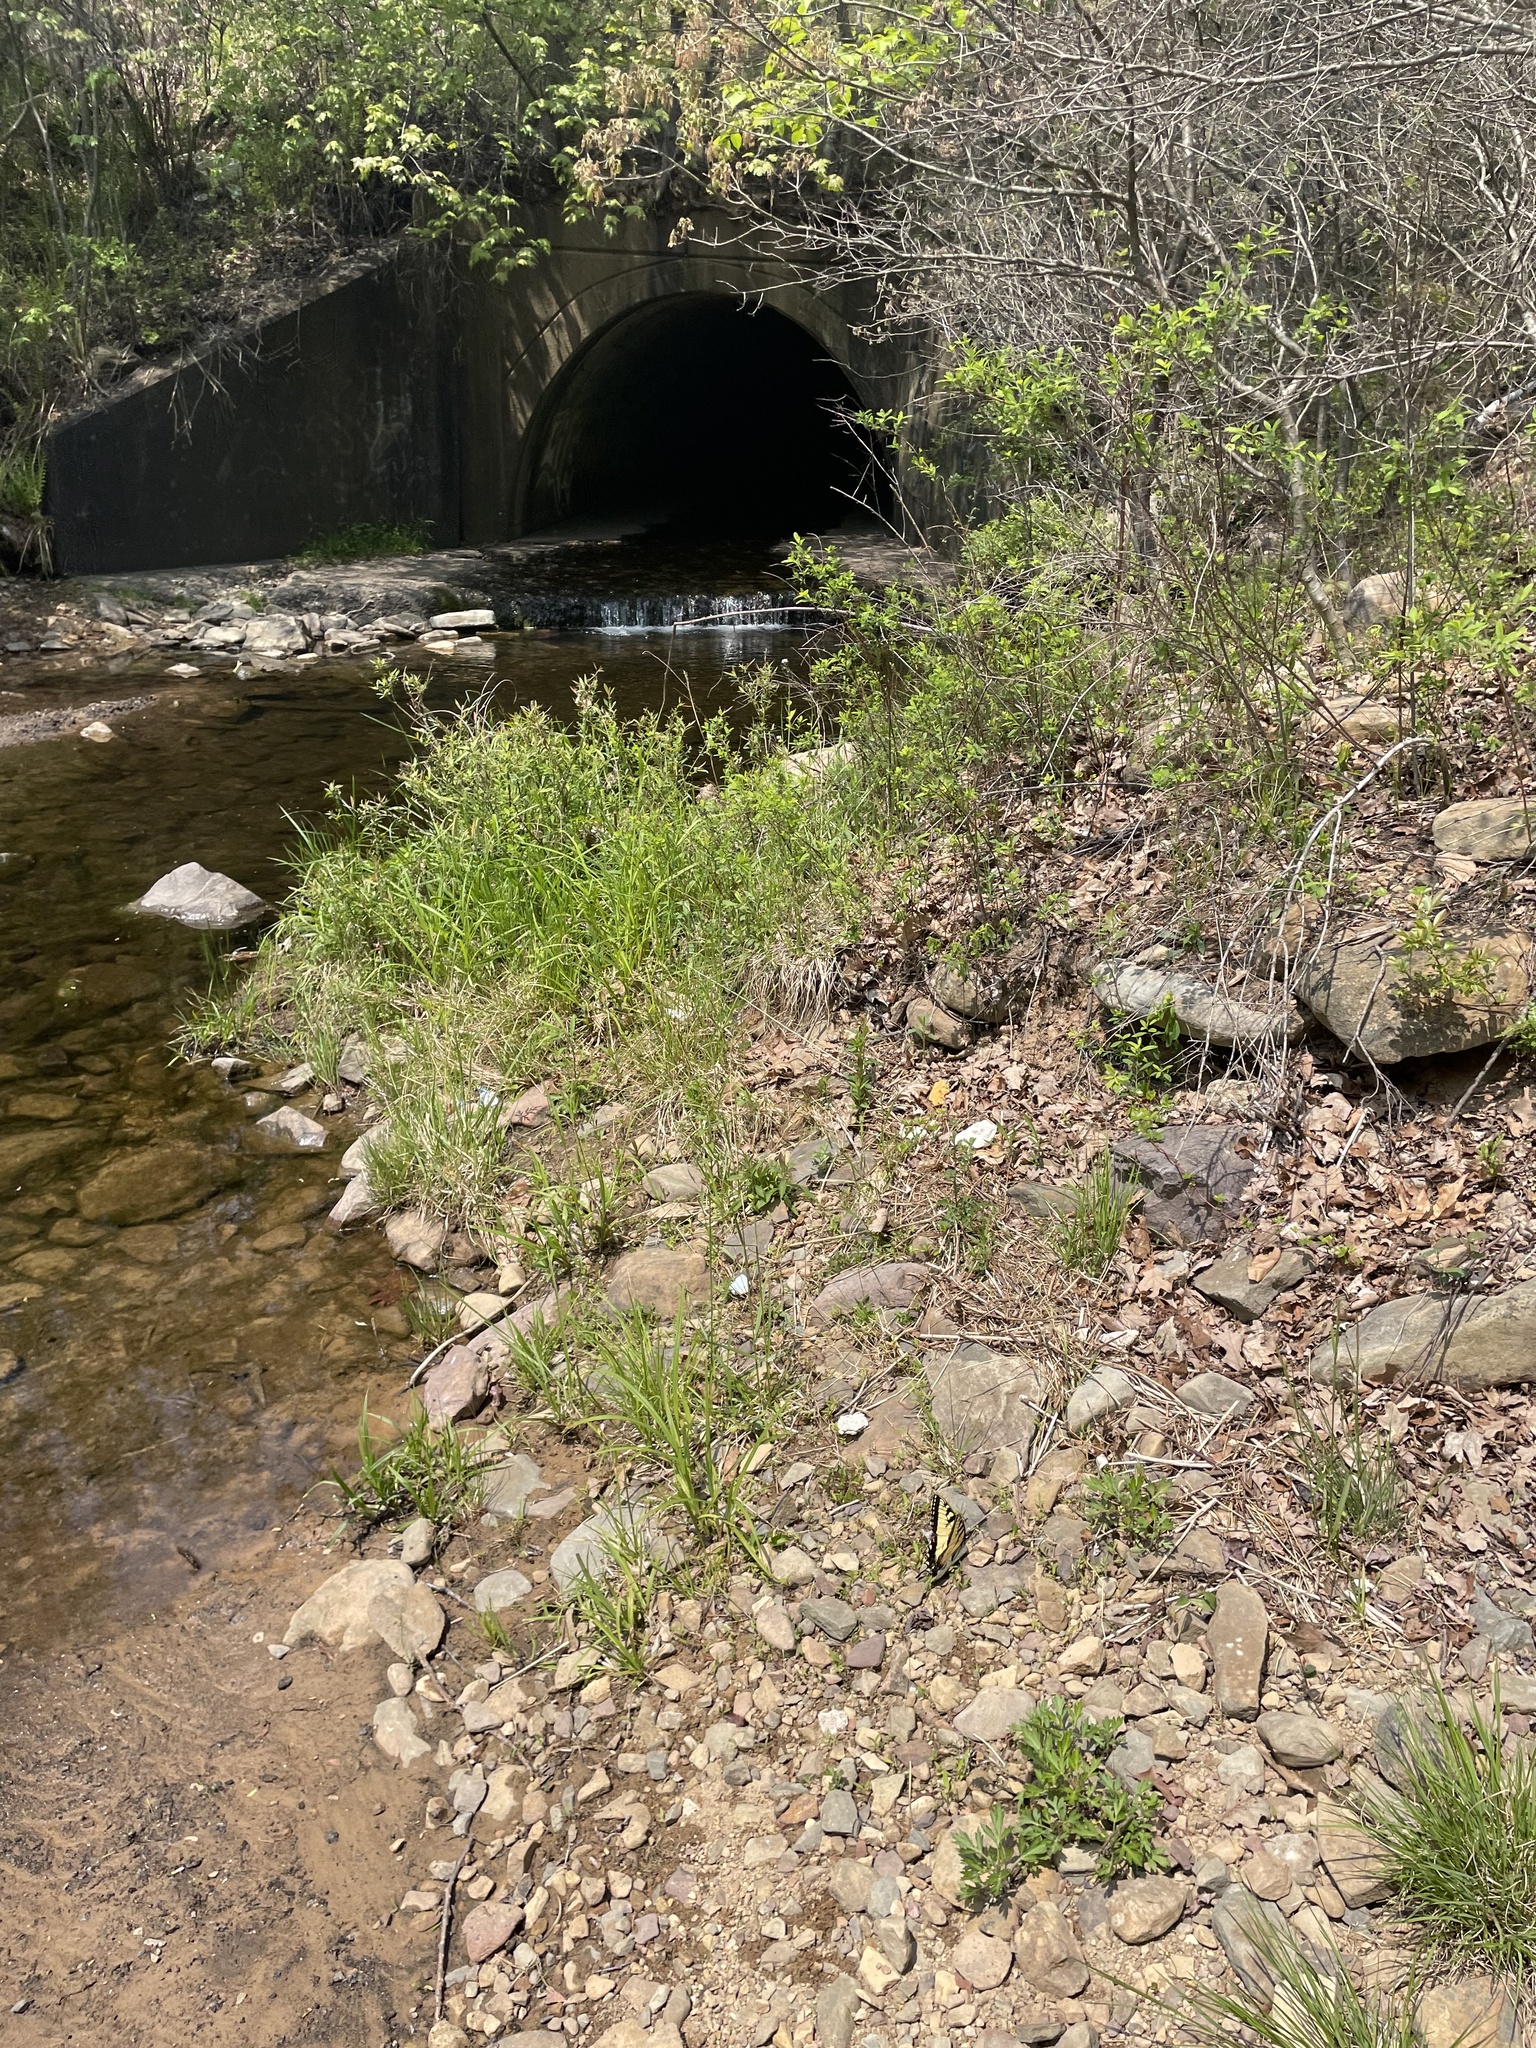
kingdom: Animalia
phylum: Arthropoda
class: Insecta
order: Lepidoptera
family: Papilionidae
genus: Papilio
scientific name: Papilio glaucus
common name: Tiger swallowtail
